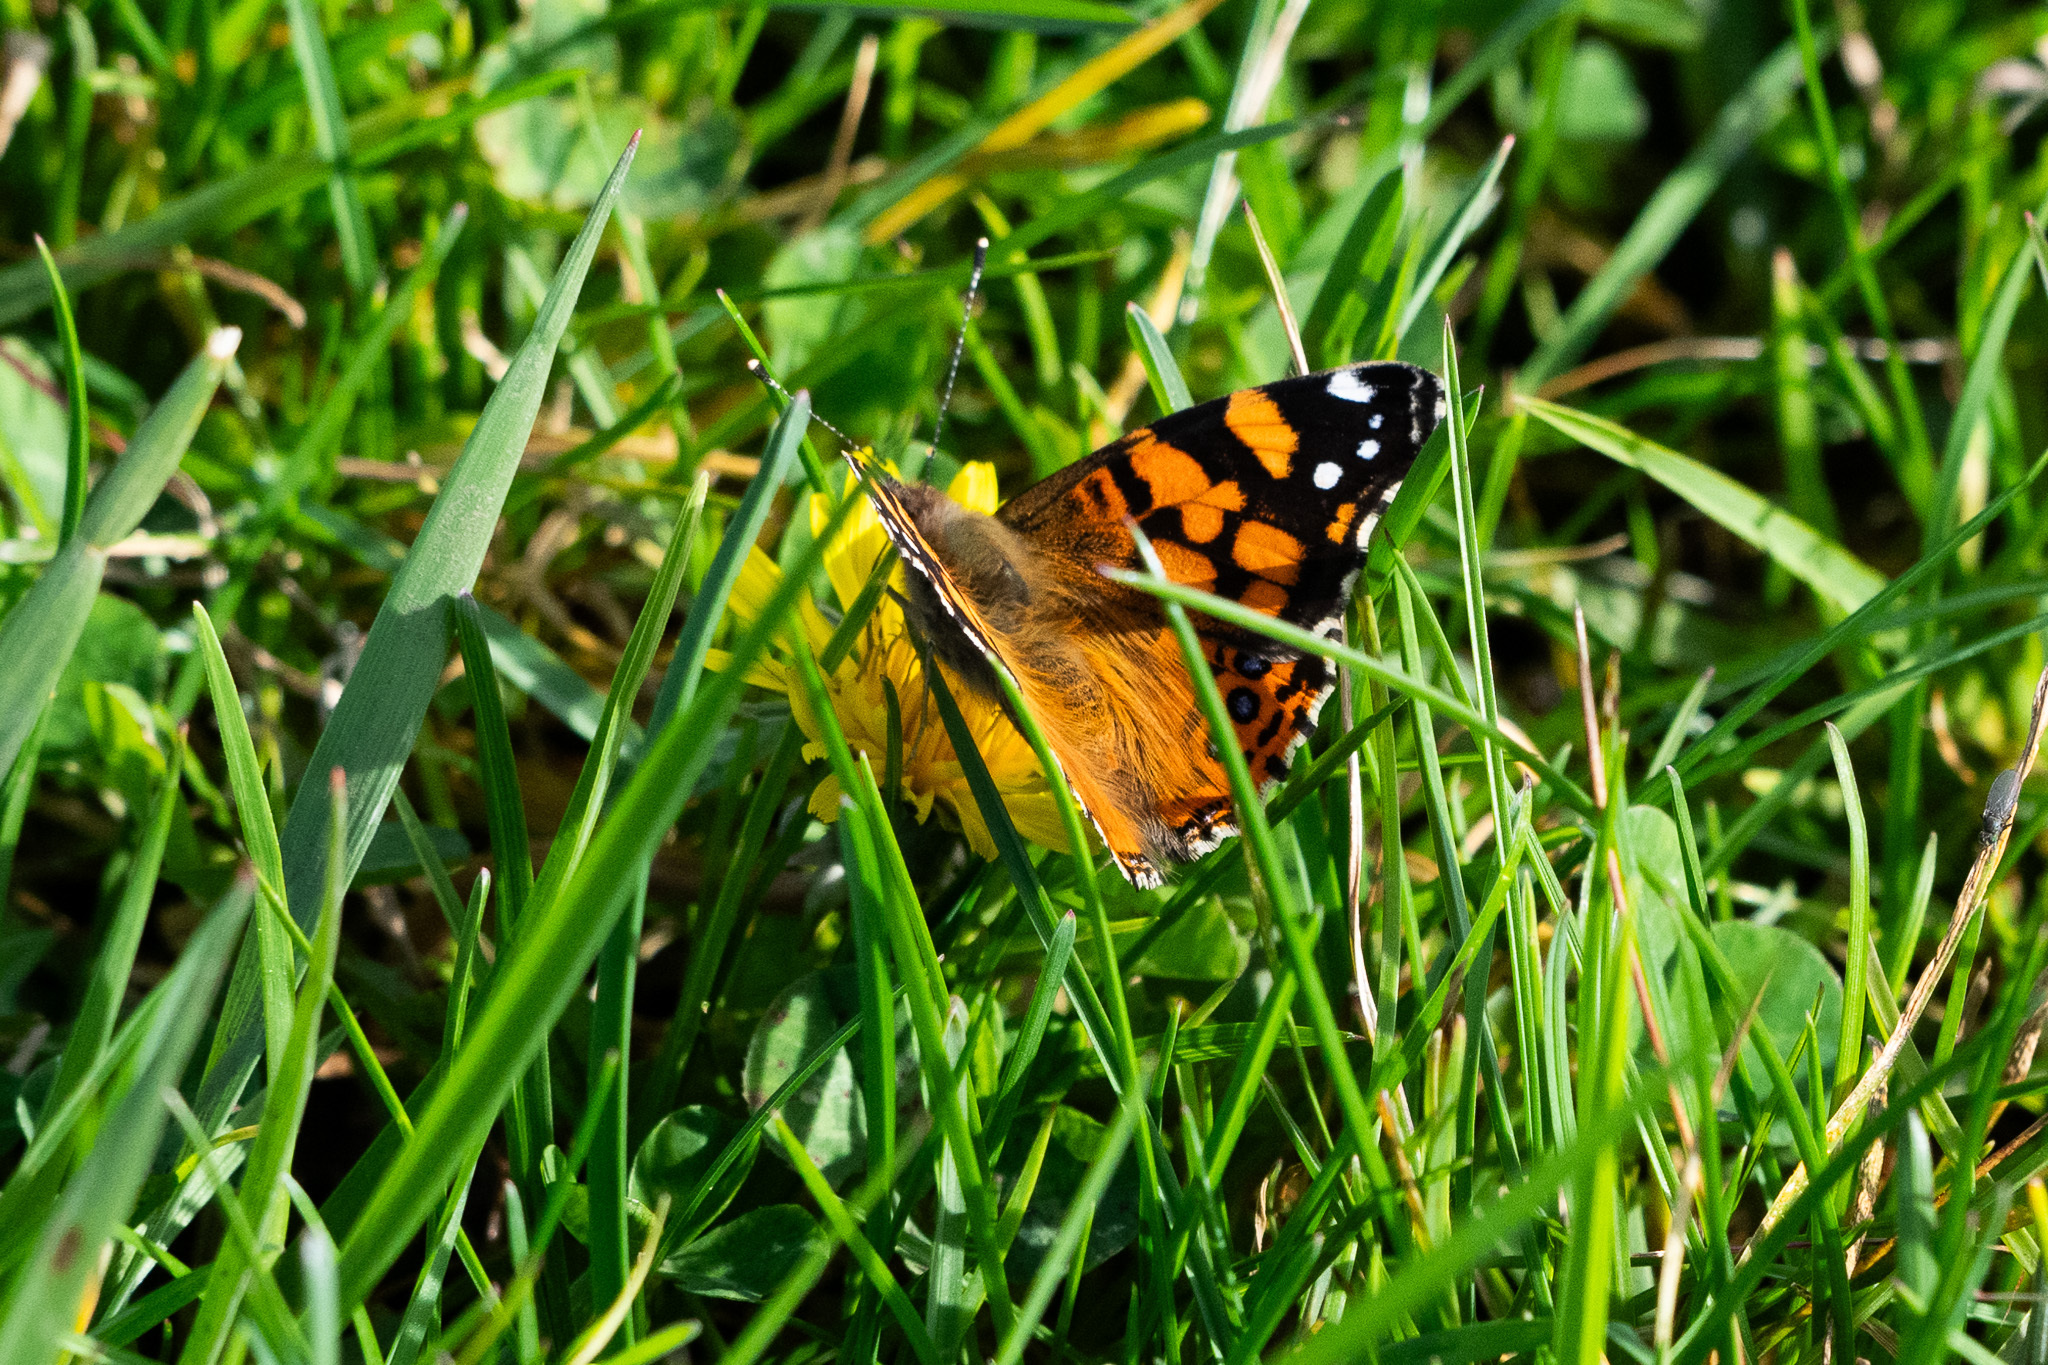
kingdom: Animalia
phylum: Arthropoda
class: Insecta
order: Lepidoptera
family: Nymphalidae
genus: Vanessa
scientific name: Vanessa annabella
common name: West coast lady
